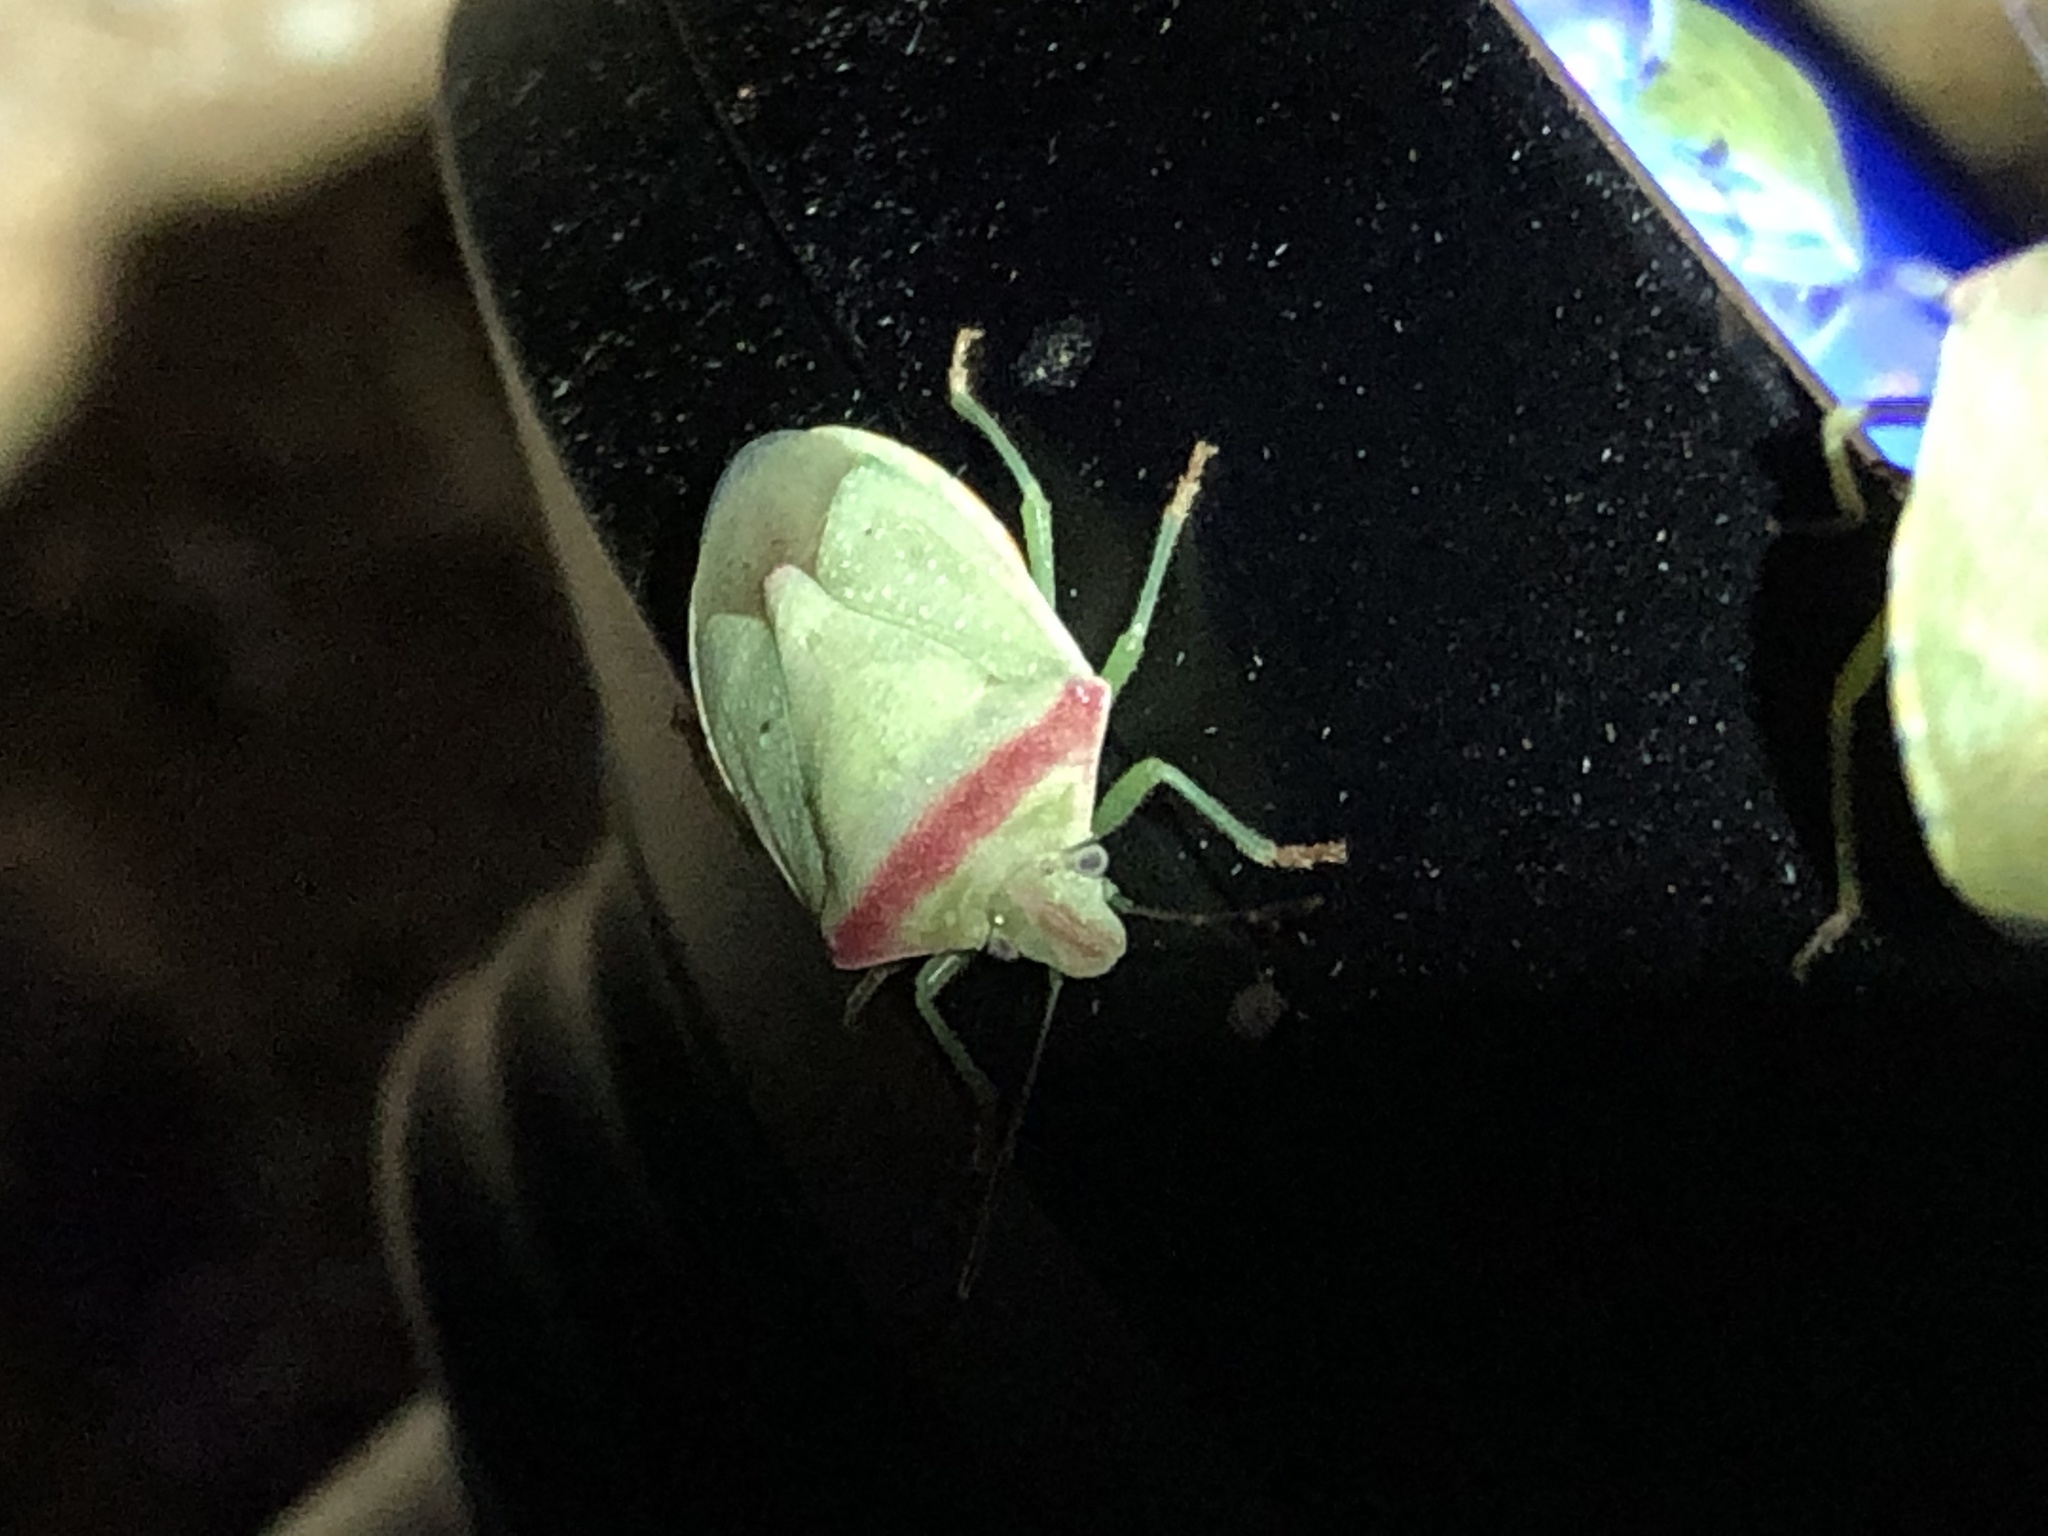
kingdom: Animalia
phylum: Arthropoda
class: Insecta
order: Hemiptera
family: Pentatomidae
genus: Thyanta
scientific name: Thyanta accerra
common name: Stink bug
